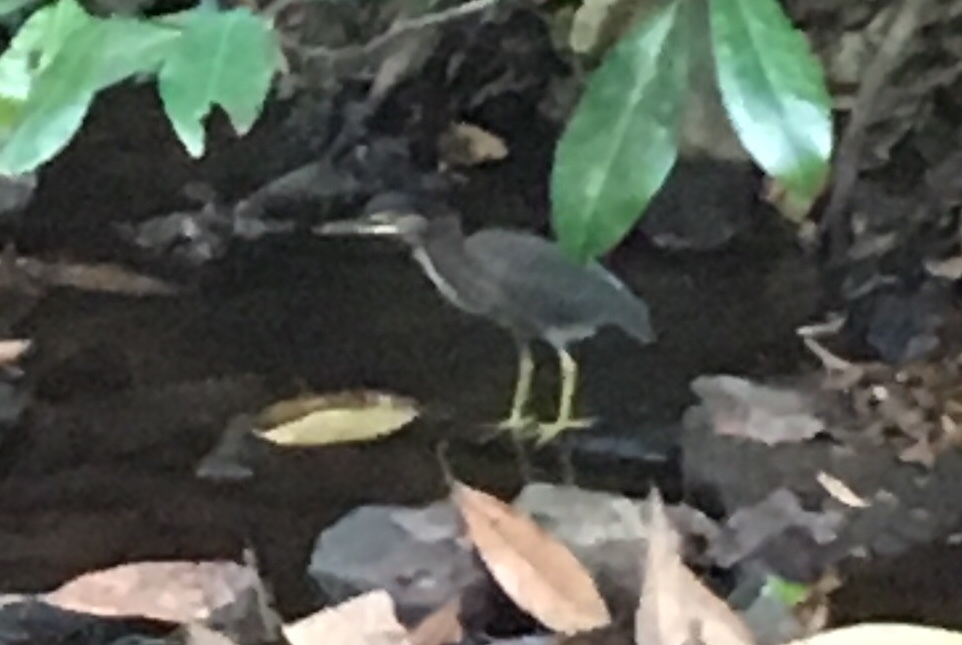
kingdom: Animalia
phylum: Chordata
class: Aves
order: Pelecaniformes
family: Ardeidae
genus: Butorides
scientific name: Butorides virescens
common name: Green heron
